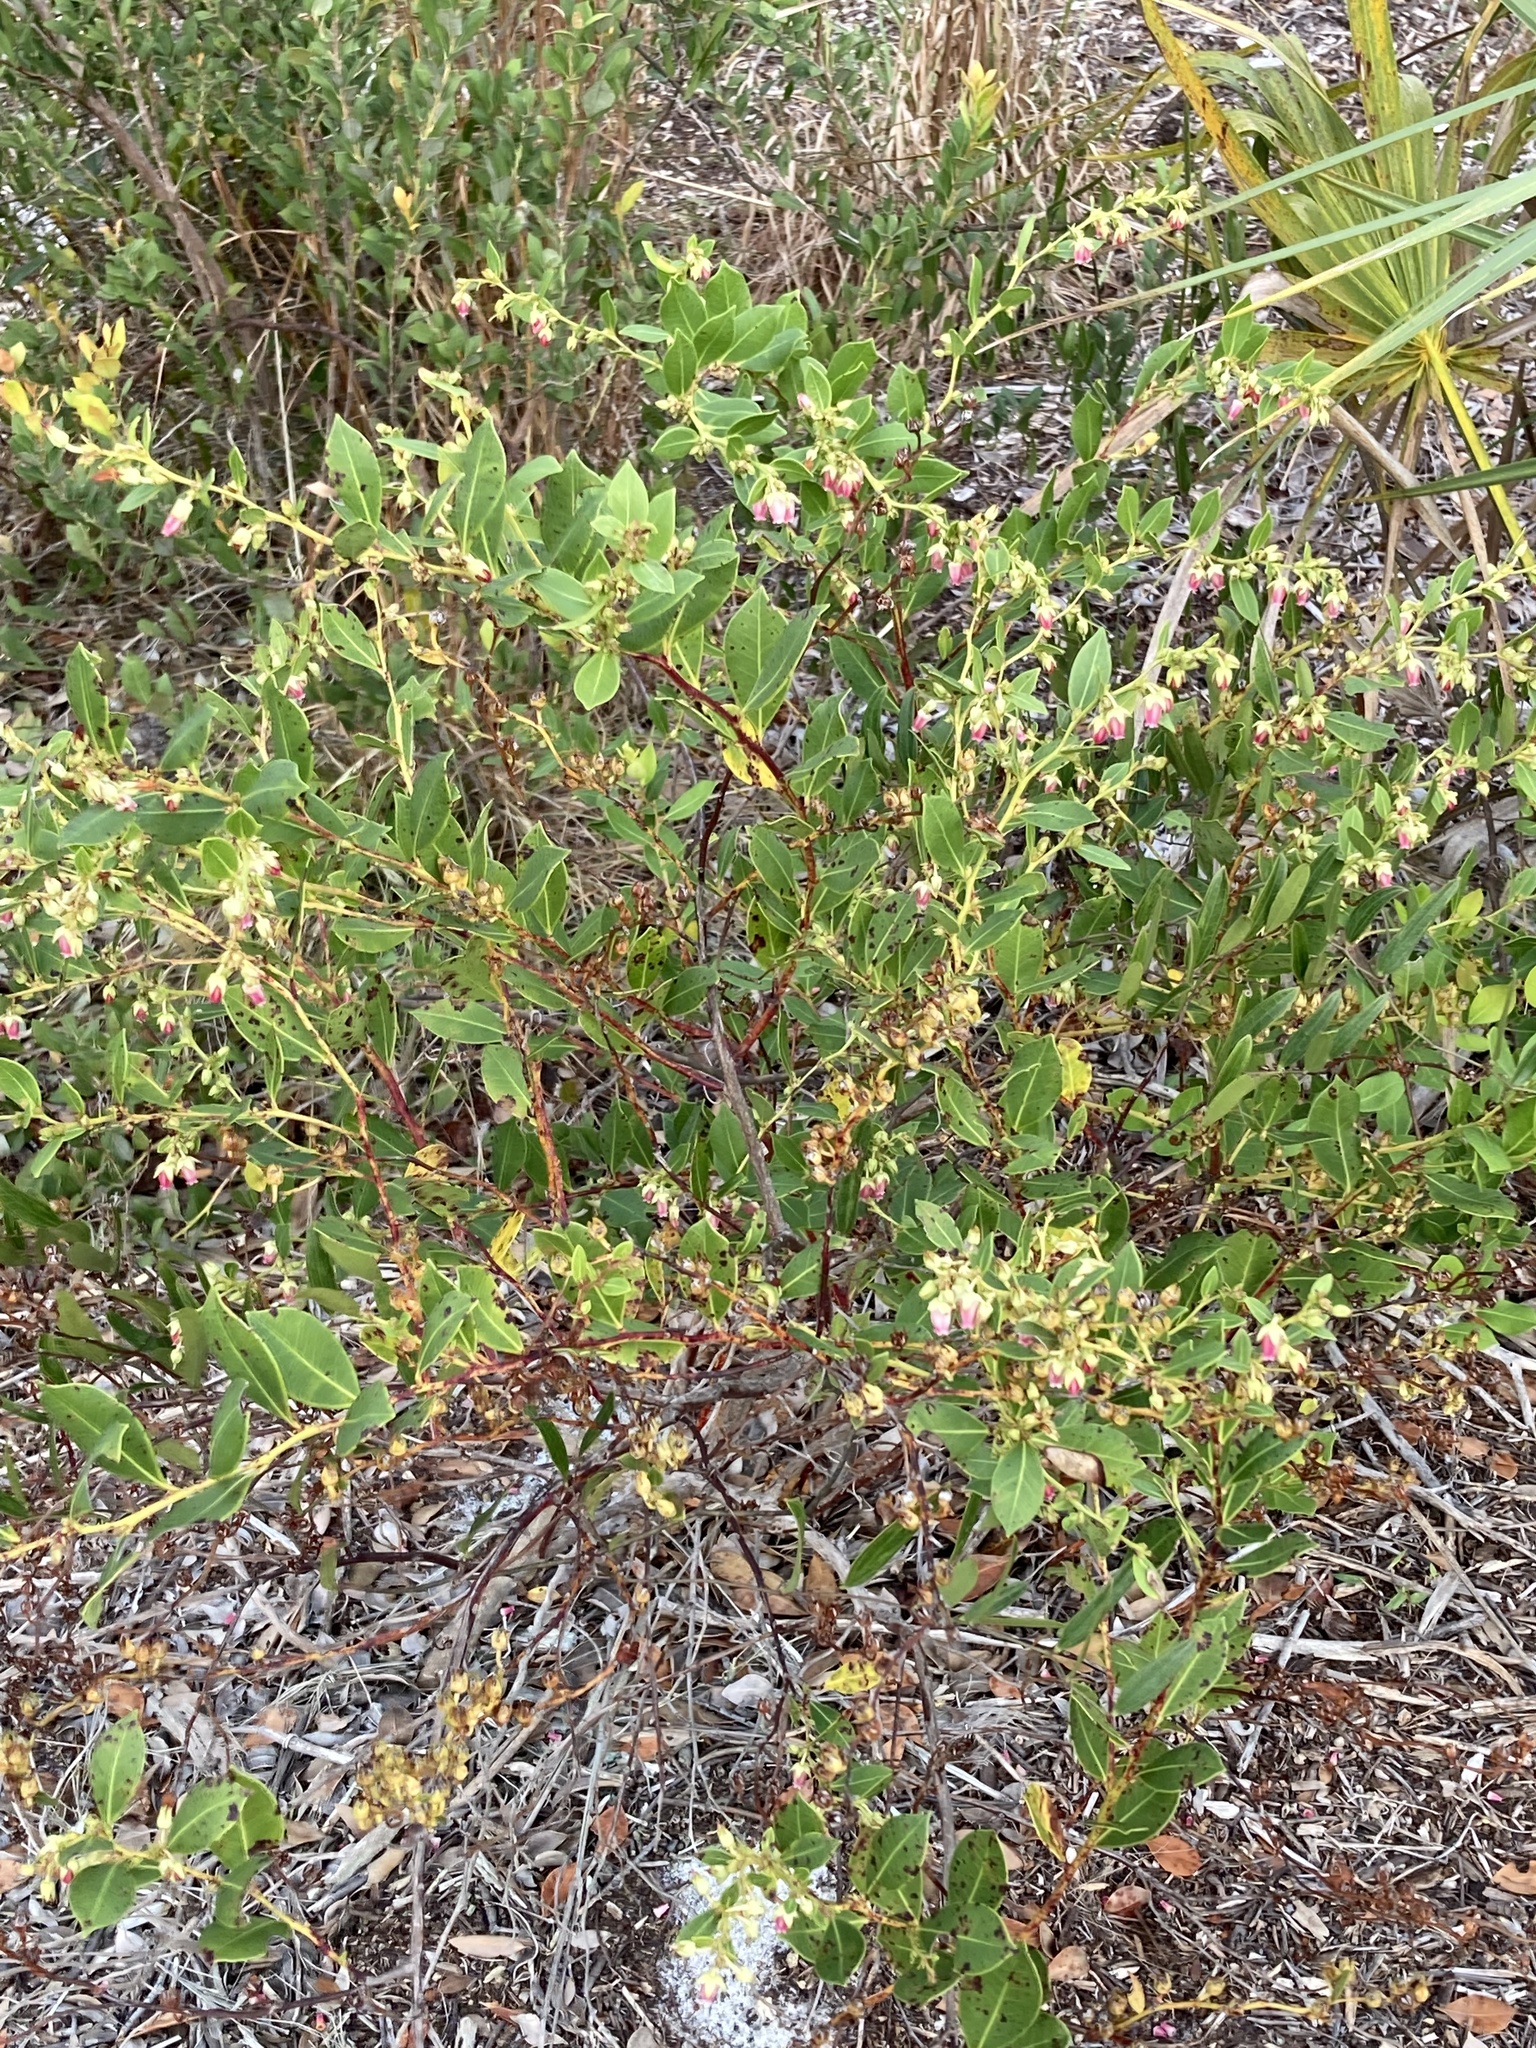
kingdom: Plantae
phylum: Tracheophyta
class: Magnoliopsida
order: Ericales
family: Ericaceae
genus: Lyonia
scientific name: Lyonia lucida
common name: Fetterbush
